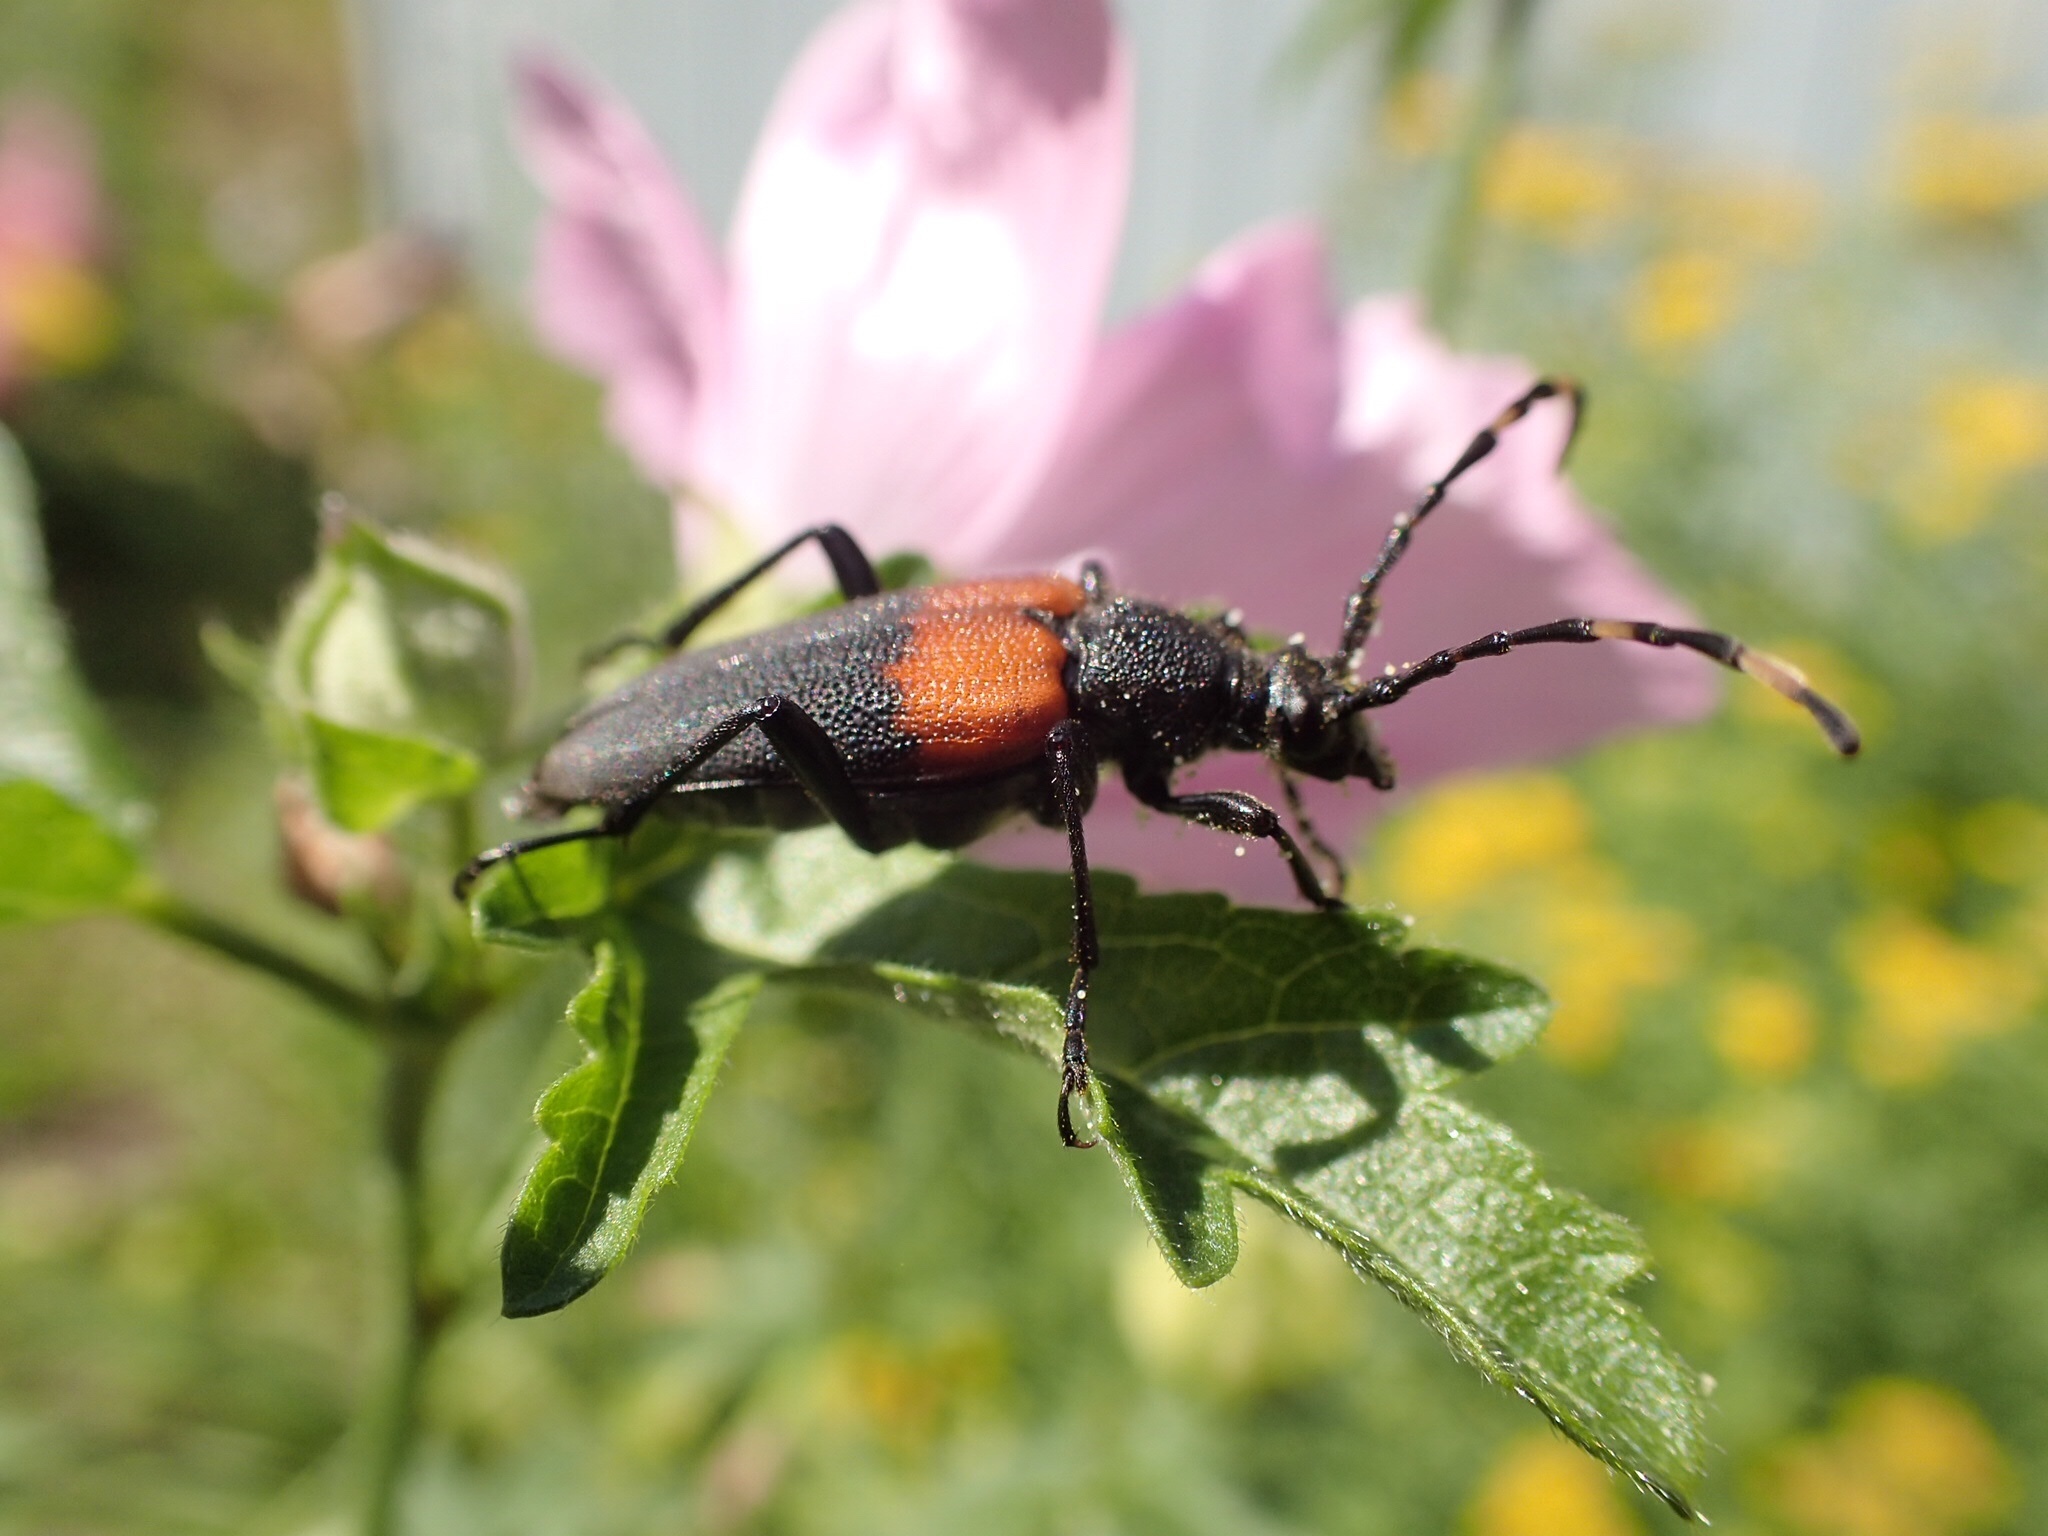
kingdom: Animalia
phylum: Arthropoda
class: Insecta
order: Coleoptera
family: Cerambycidae
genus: Stictoleptura
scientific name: Stictoleptura canadensis
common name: Red-shouldered pine borer
